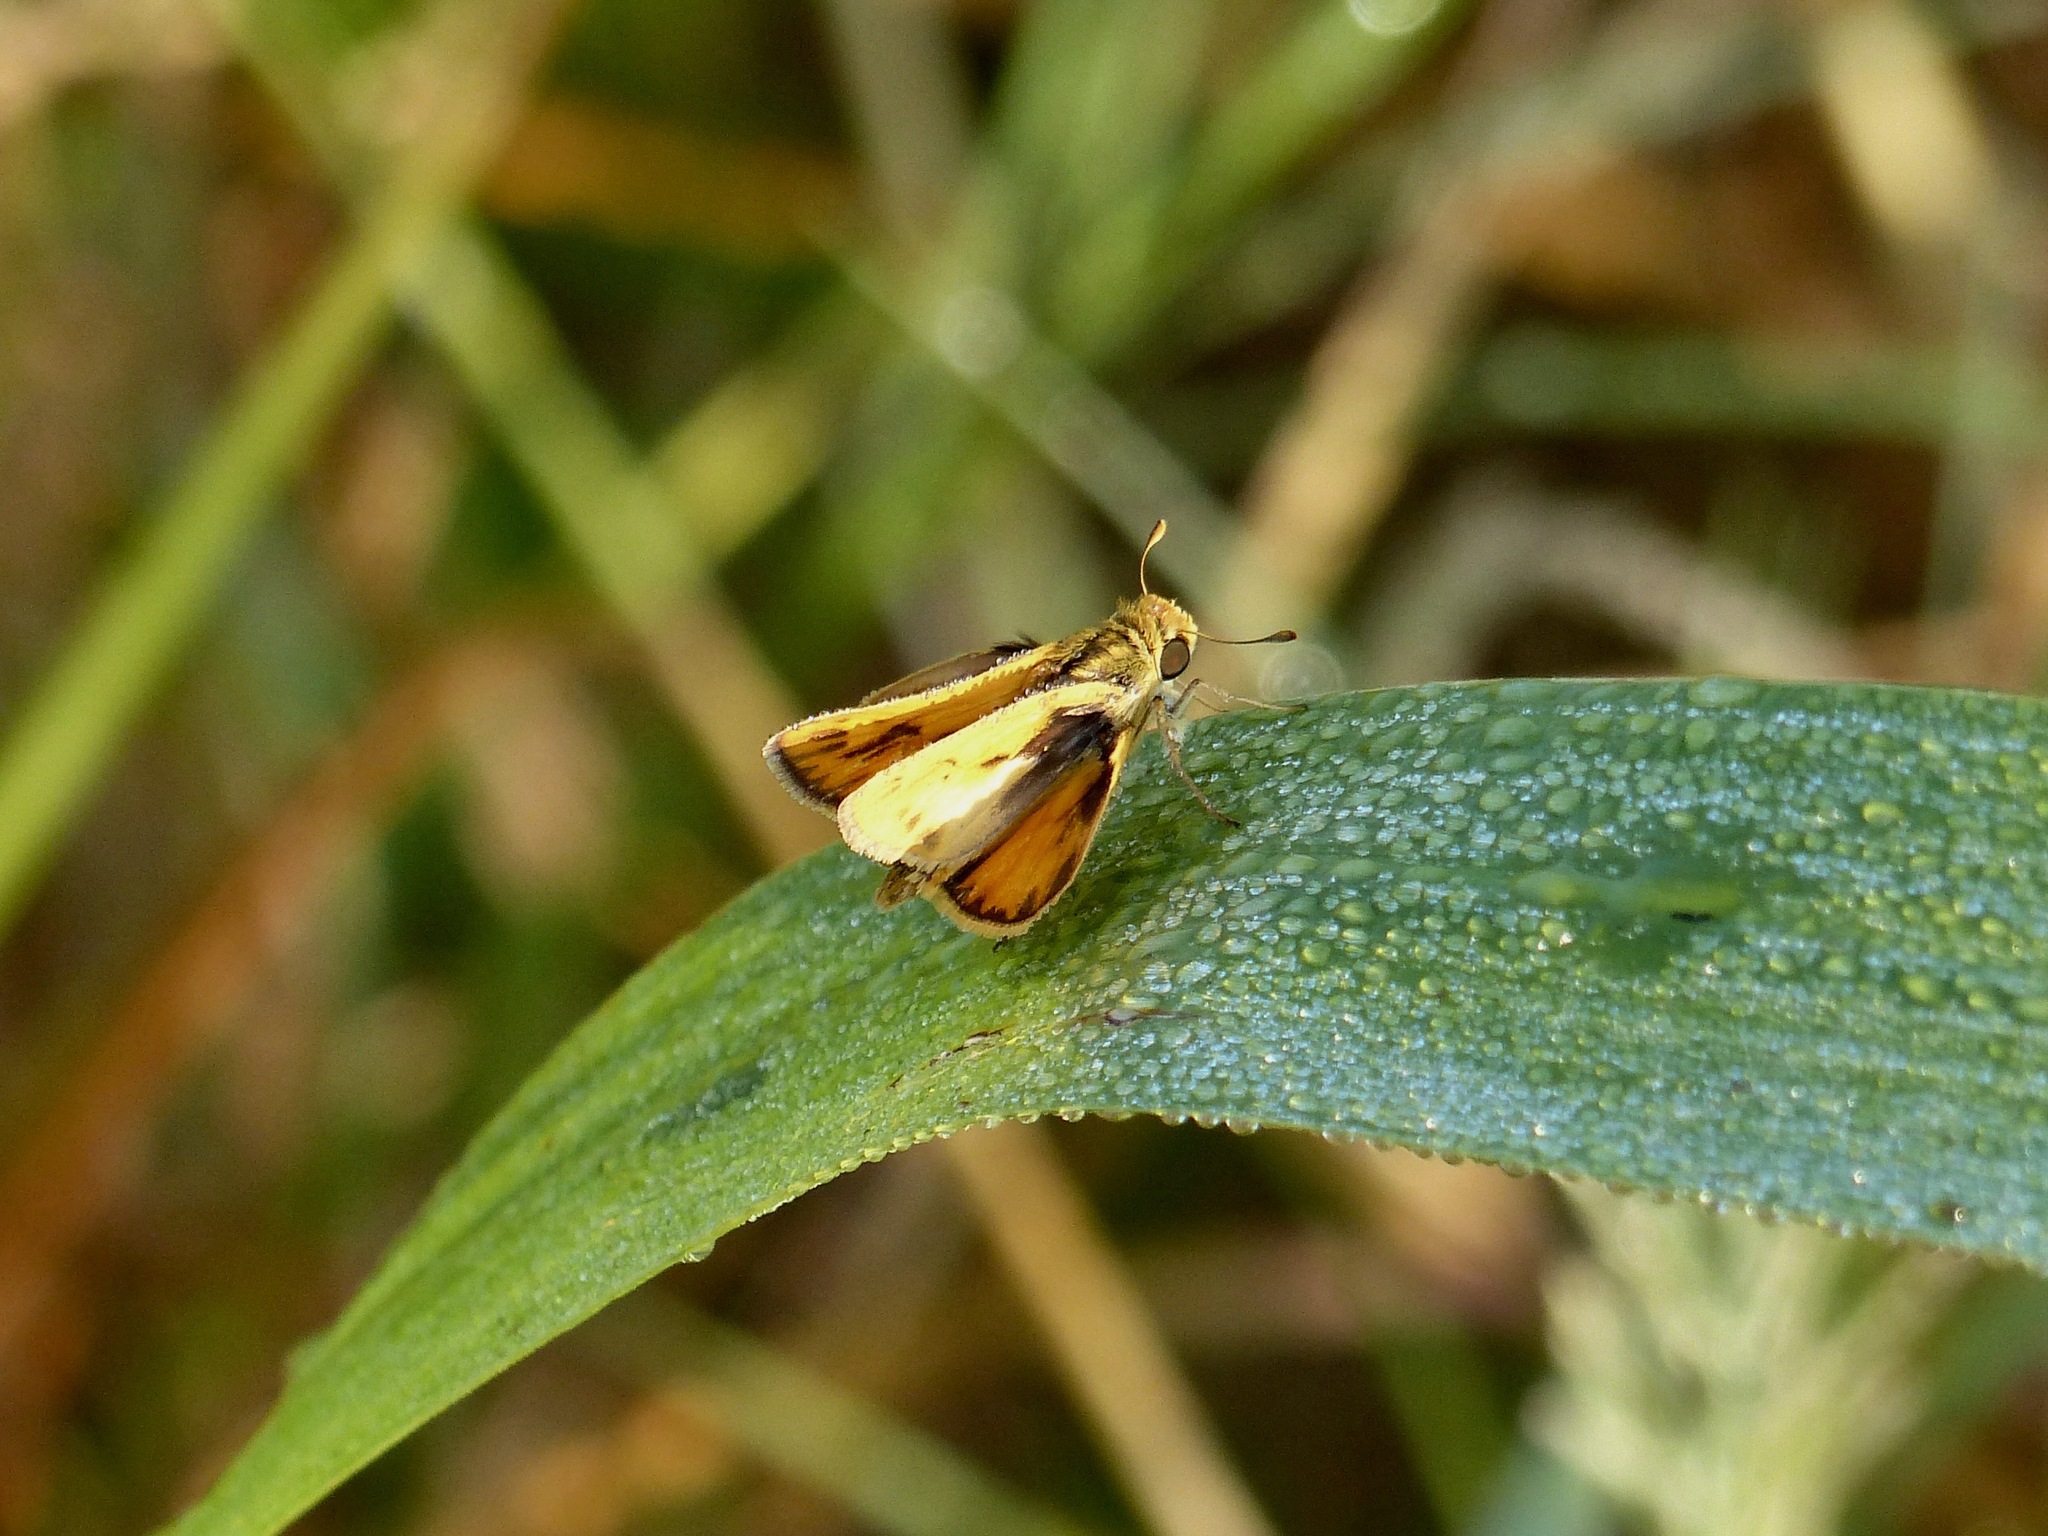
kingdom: Animalia
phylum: Arthropoda
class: Insecta
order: Lepidoptera
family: Hesperiidae
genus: Hylephila
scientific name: Hylephila phyleus
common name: Fiery skipper
